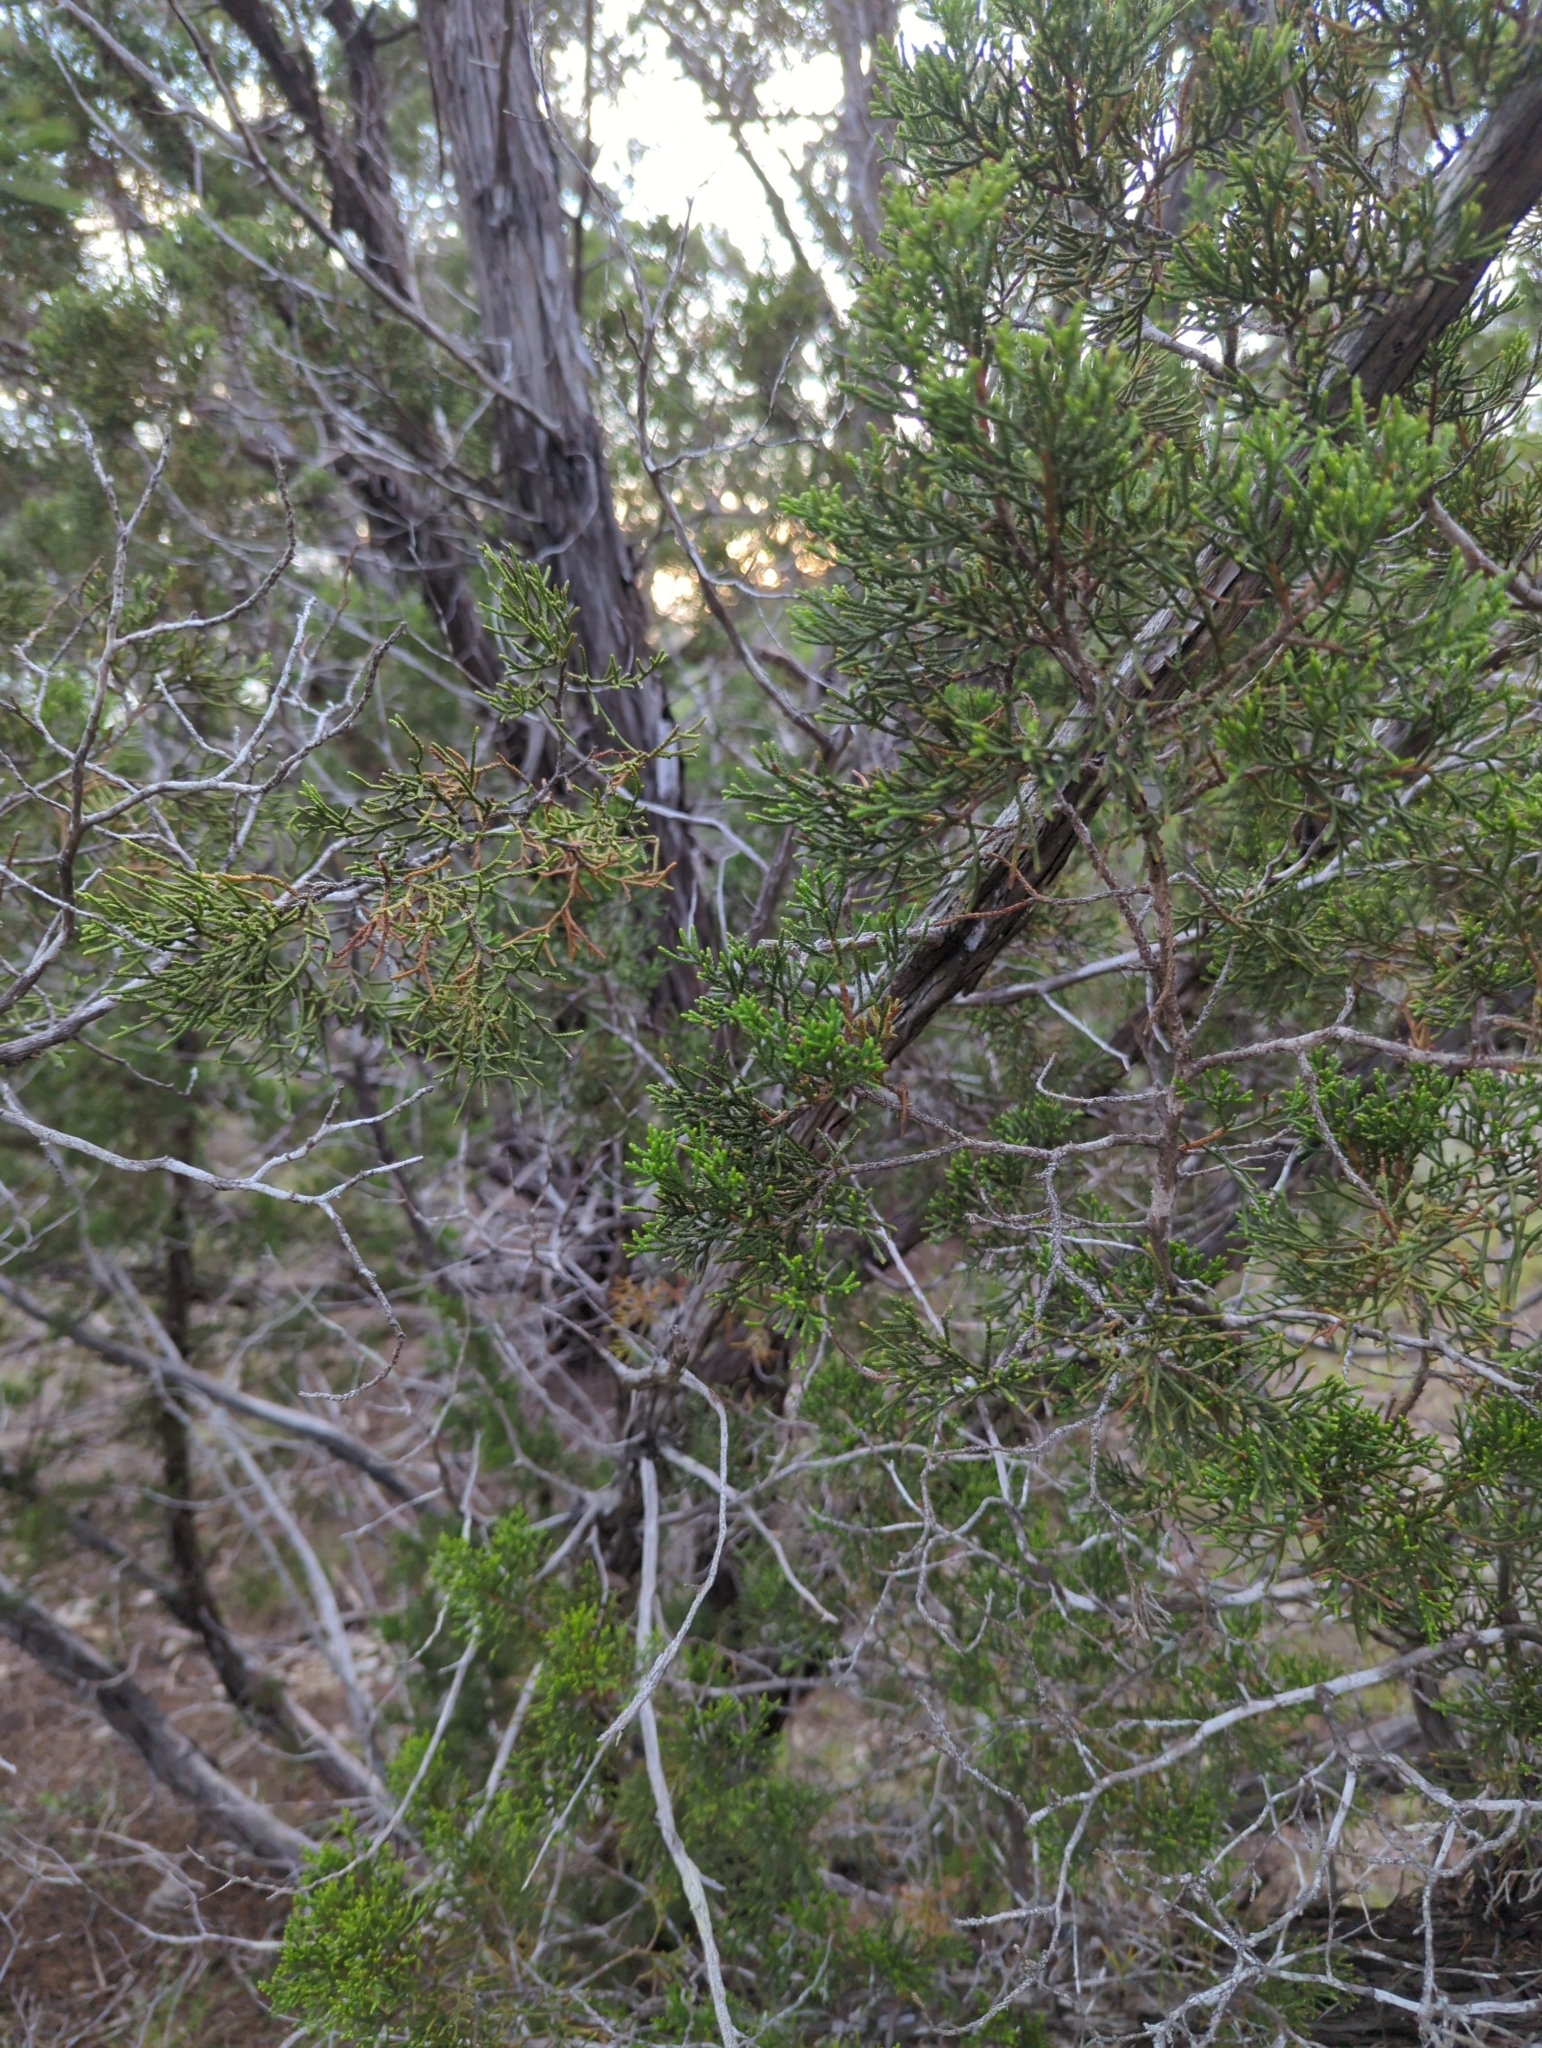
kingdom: Plantae
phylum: Tracheophyta
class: Pinopsida
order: Pinales
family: Cupressaceae
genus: Juniperus
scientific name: Juniperus ashei
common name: Mexican juniper
